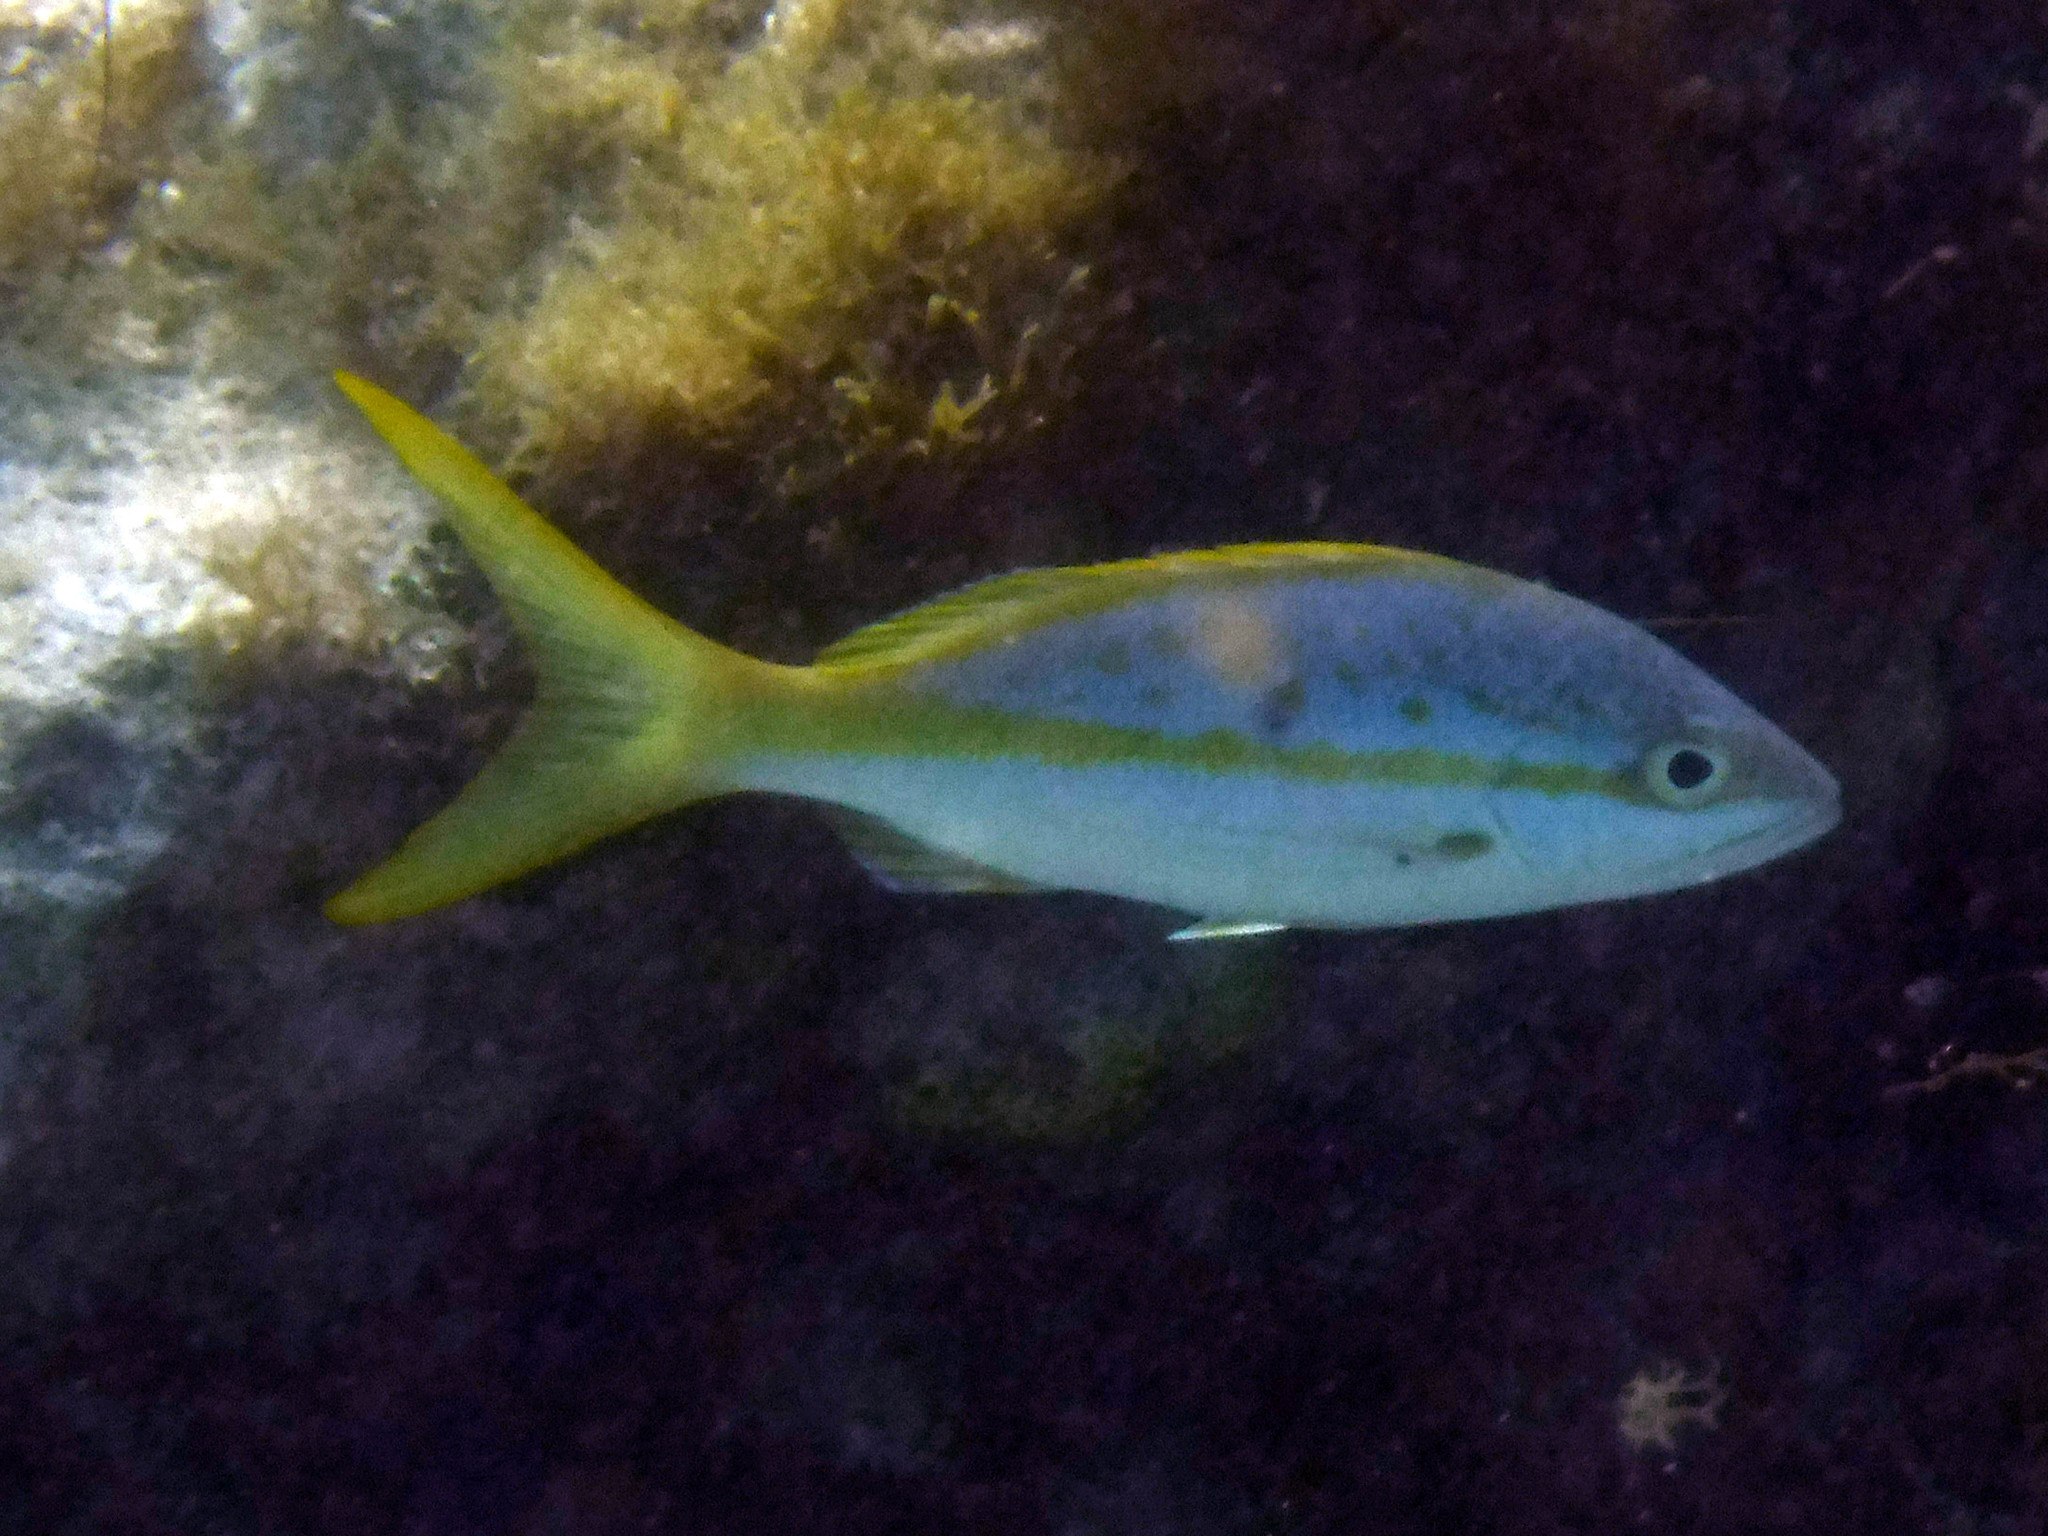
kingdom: Animalia
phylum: Chordata
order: Perciformes
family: Lutjanidae
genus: Ocyurus
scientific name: Ocyurus chrysurus
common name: Yellowtail snapper
